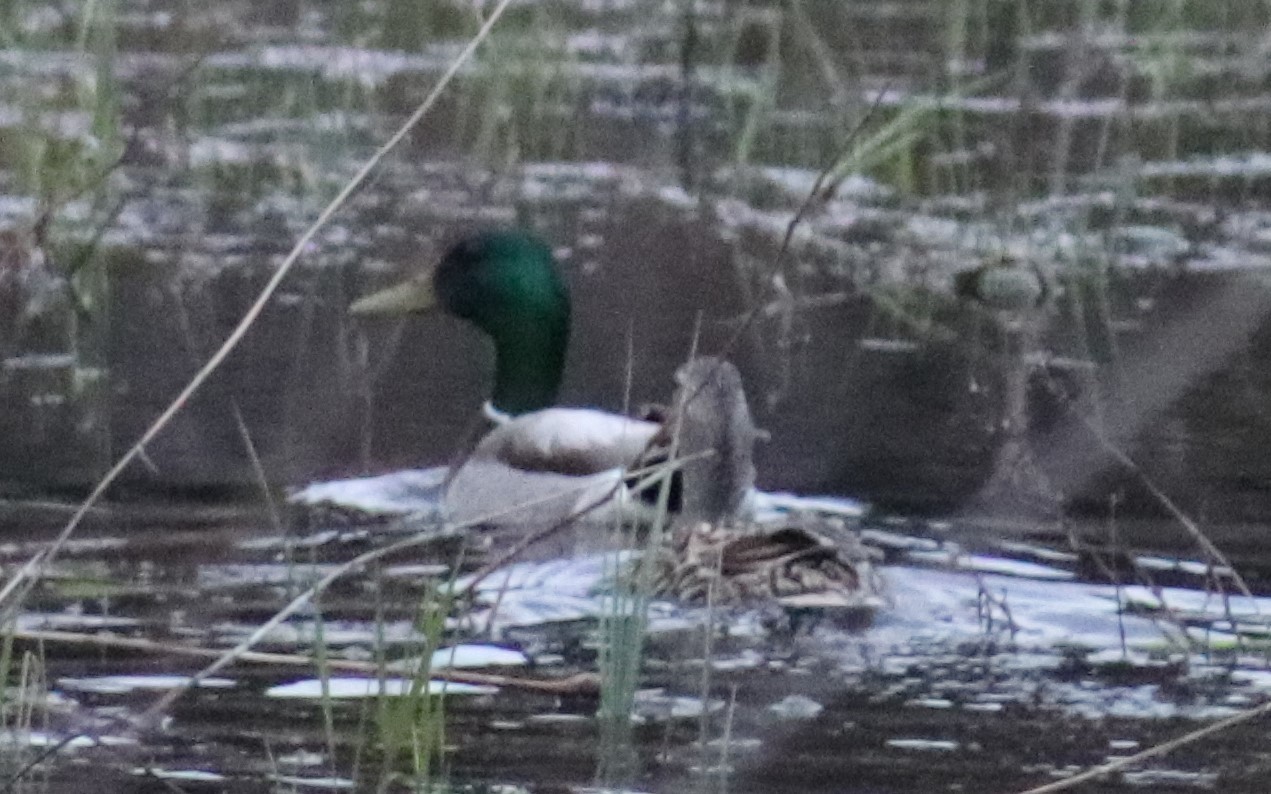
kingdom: Animalia
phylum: Chordata
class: Aves
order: Anseriformes
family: Anatidae
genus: Anas
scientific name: Anas platyrhynchos
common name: Mallard
